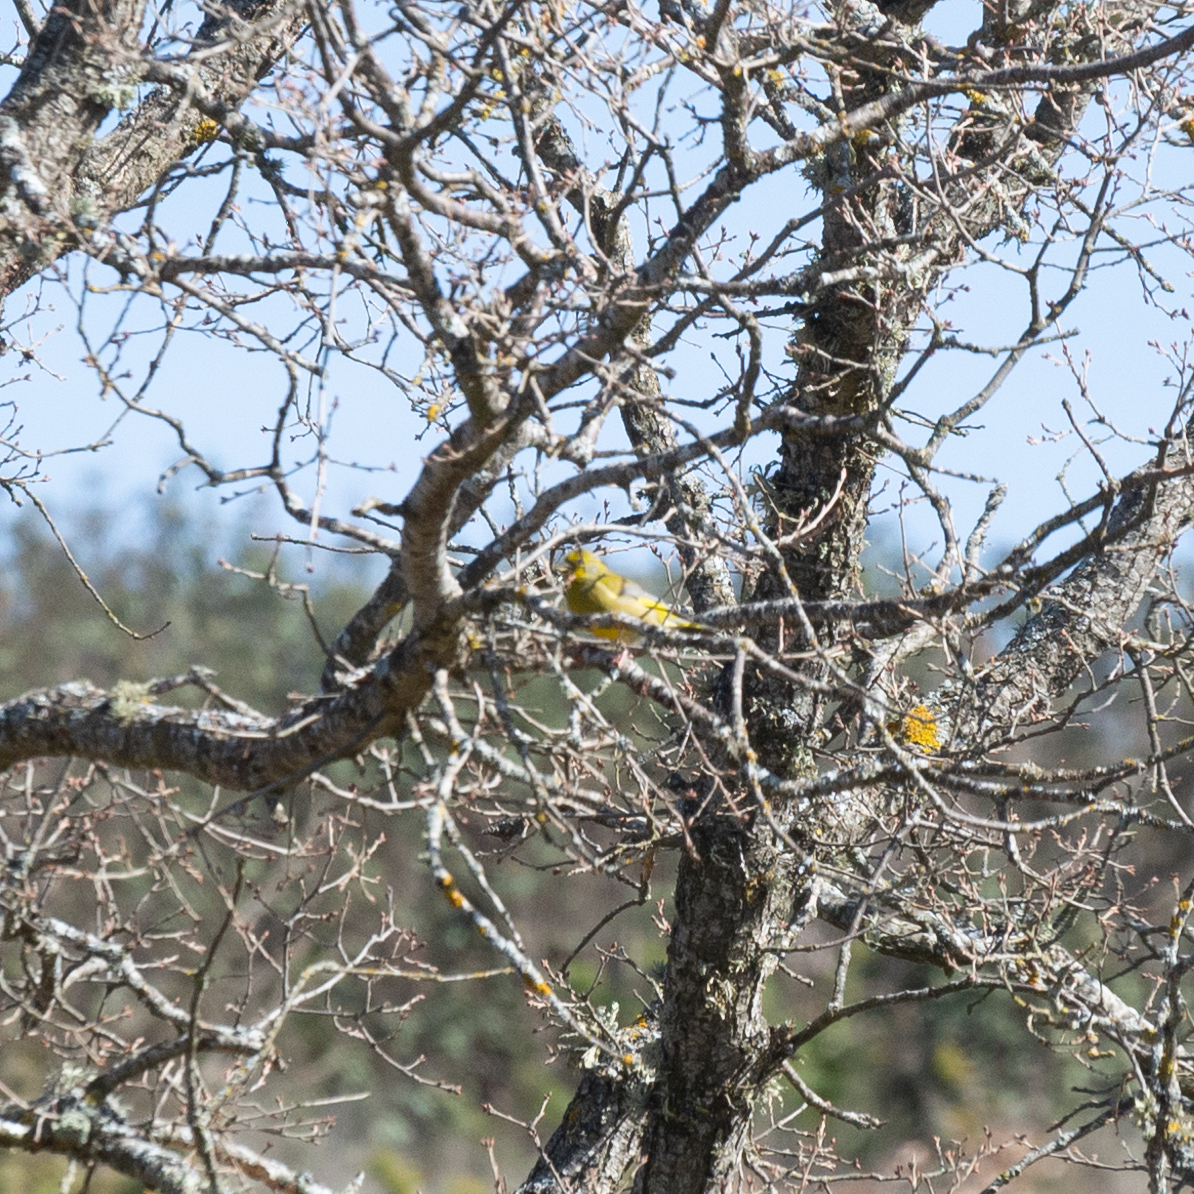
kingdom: Plantae
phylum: Tracheophyta
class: Liliopsida
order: Poales
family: Poaceae
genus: Chloris
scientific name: Chloris chloris
